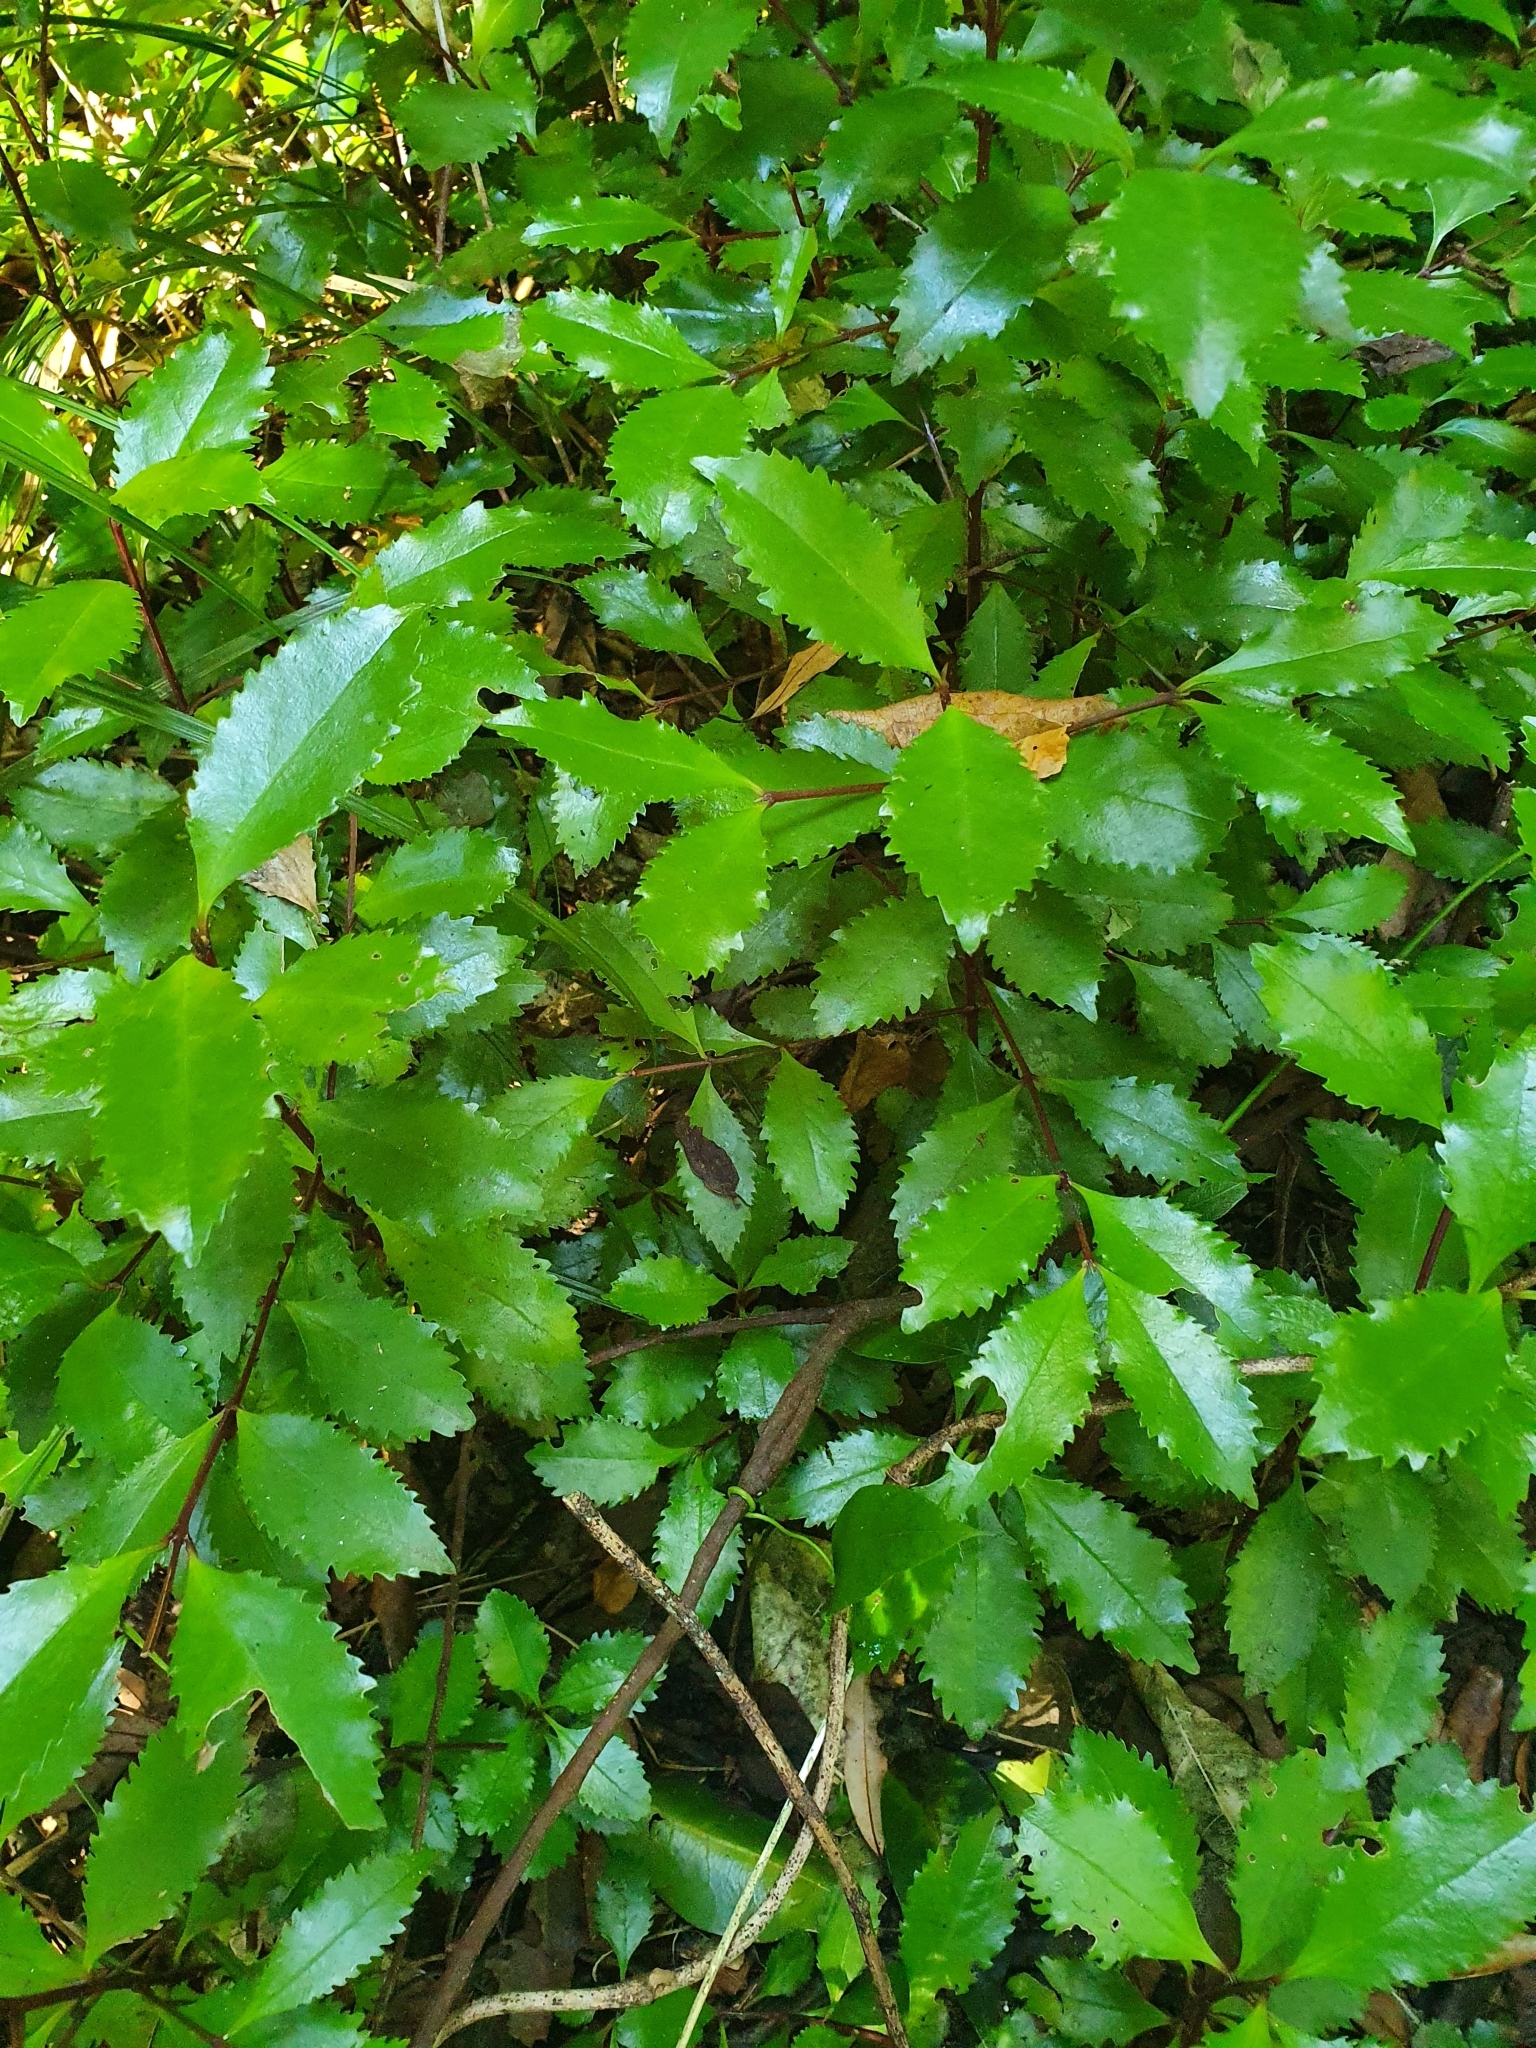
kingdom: Plantae
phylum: Tracheophyta
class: Magnoliopsida
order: Laurales
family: Atherospermataceae
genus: Laurelia
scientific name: Laurelia novae-zelandiae
